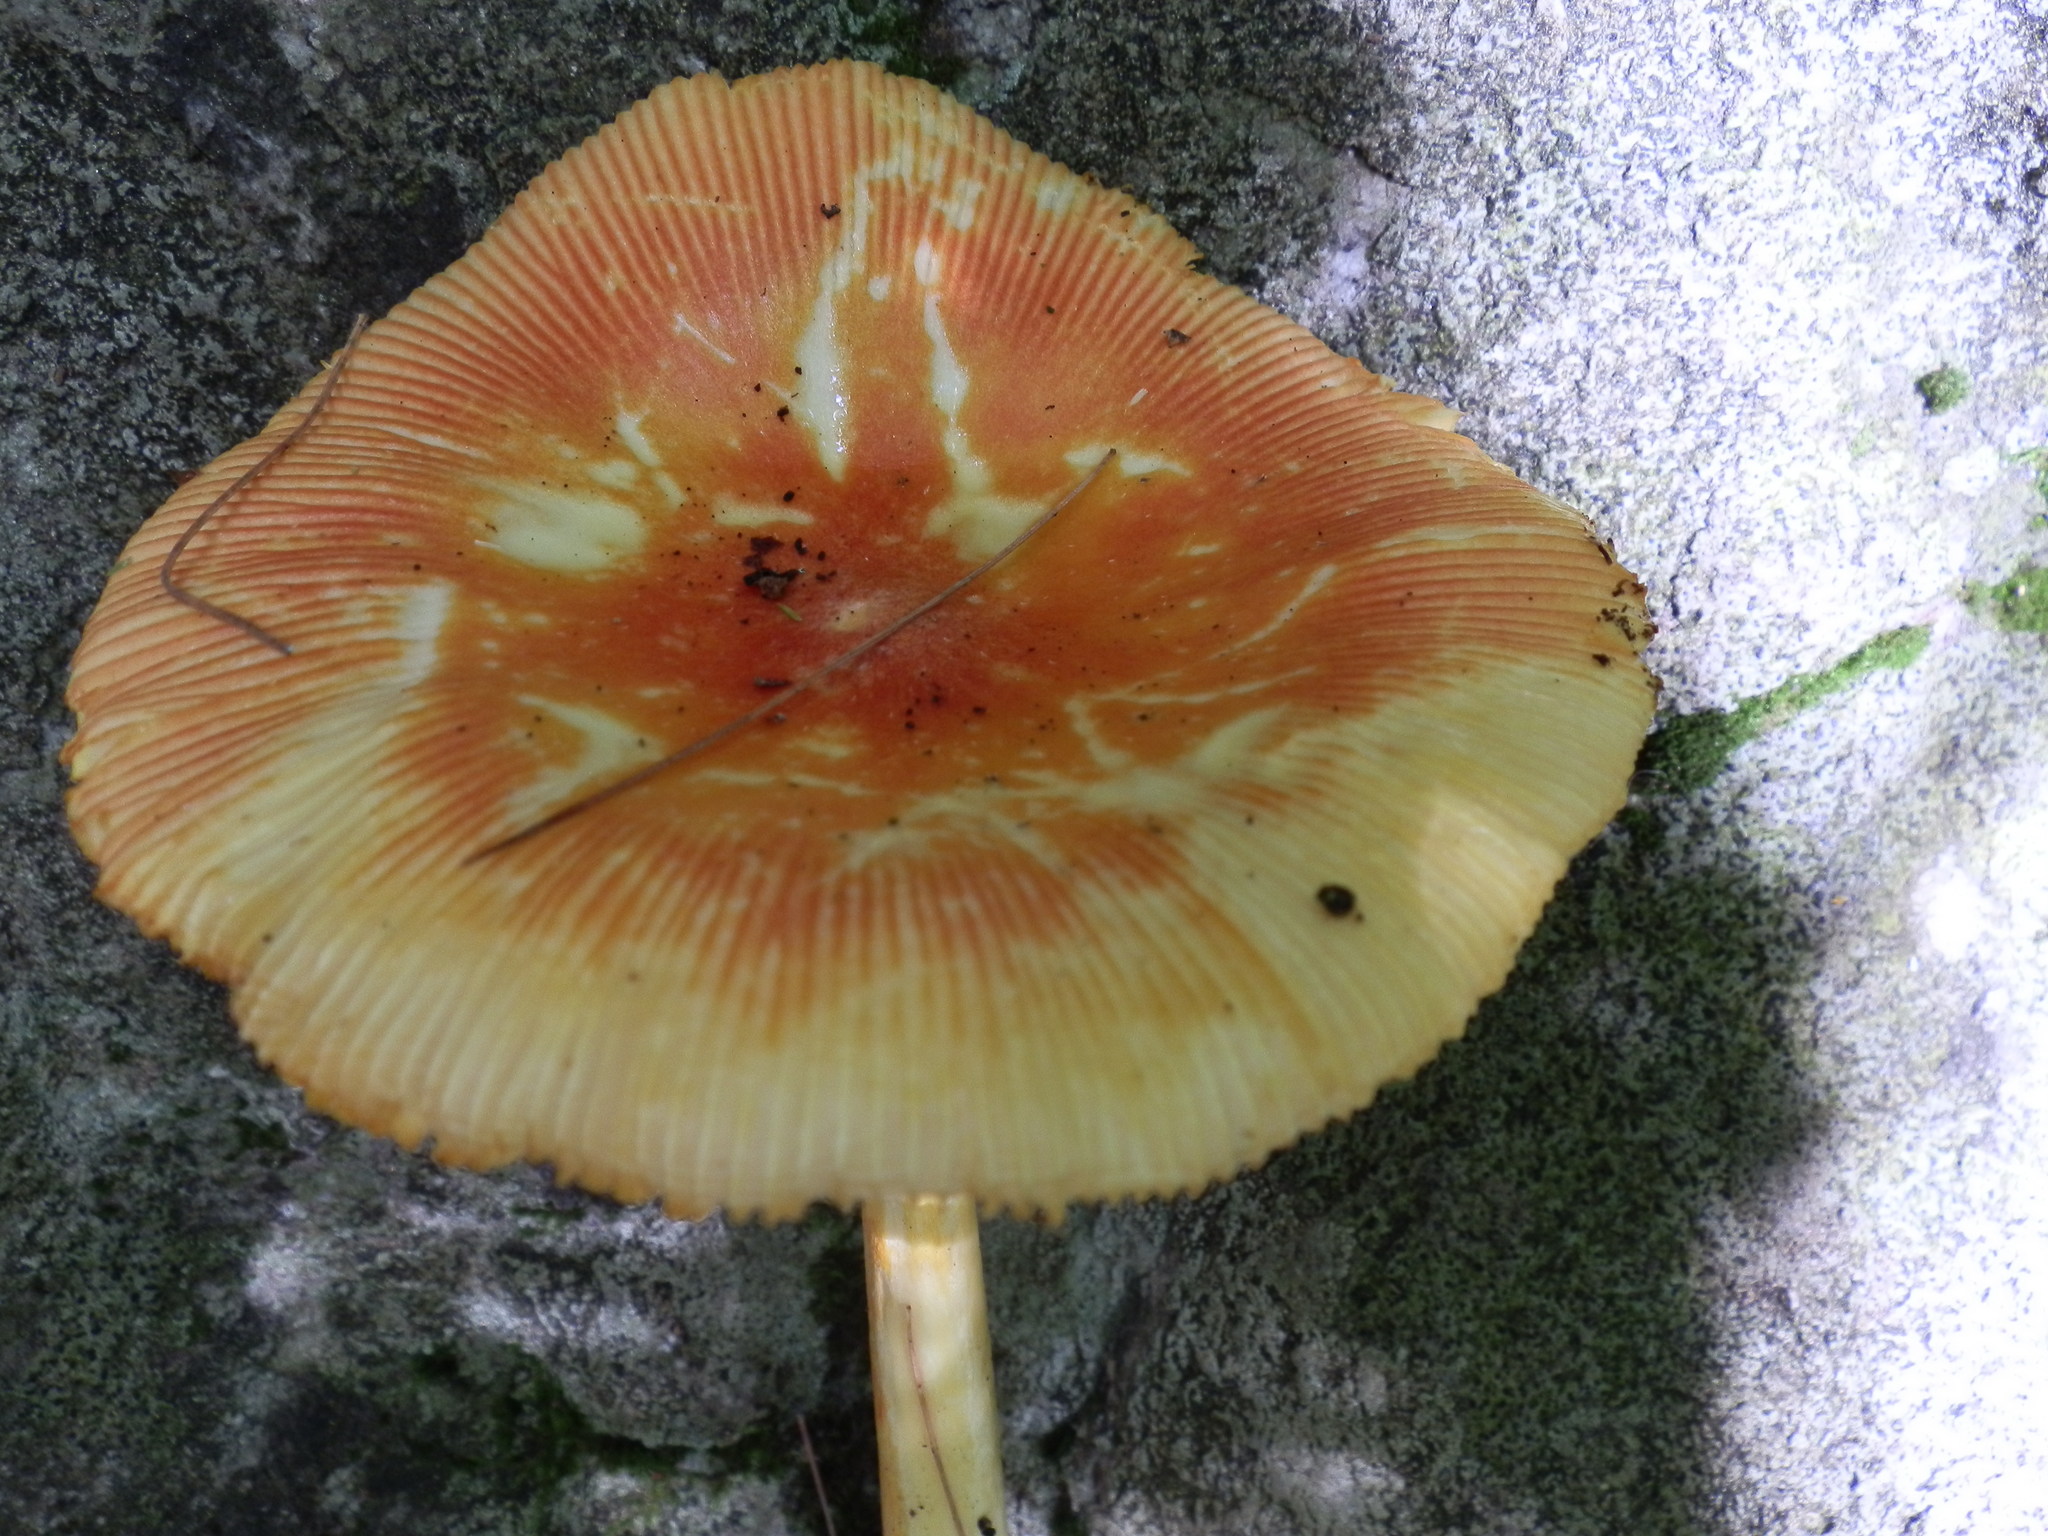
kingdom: Fungi
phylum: Basidiomycota
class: Agaricomycetes
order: Agaricales
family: Amanitaceae
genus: Amanita
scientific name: Amanita jacksonii
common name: Jackson's slender caesar
